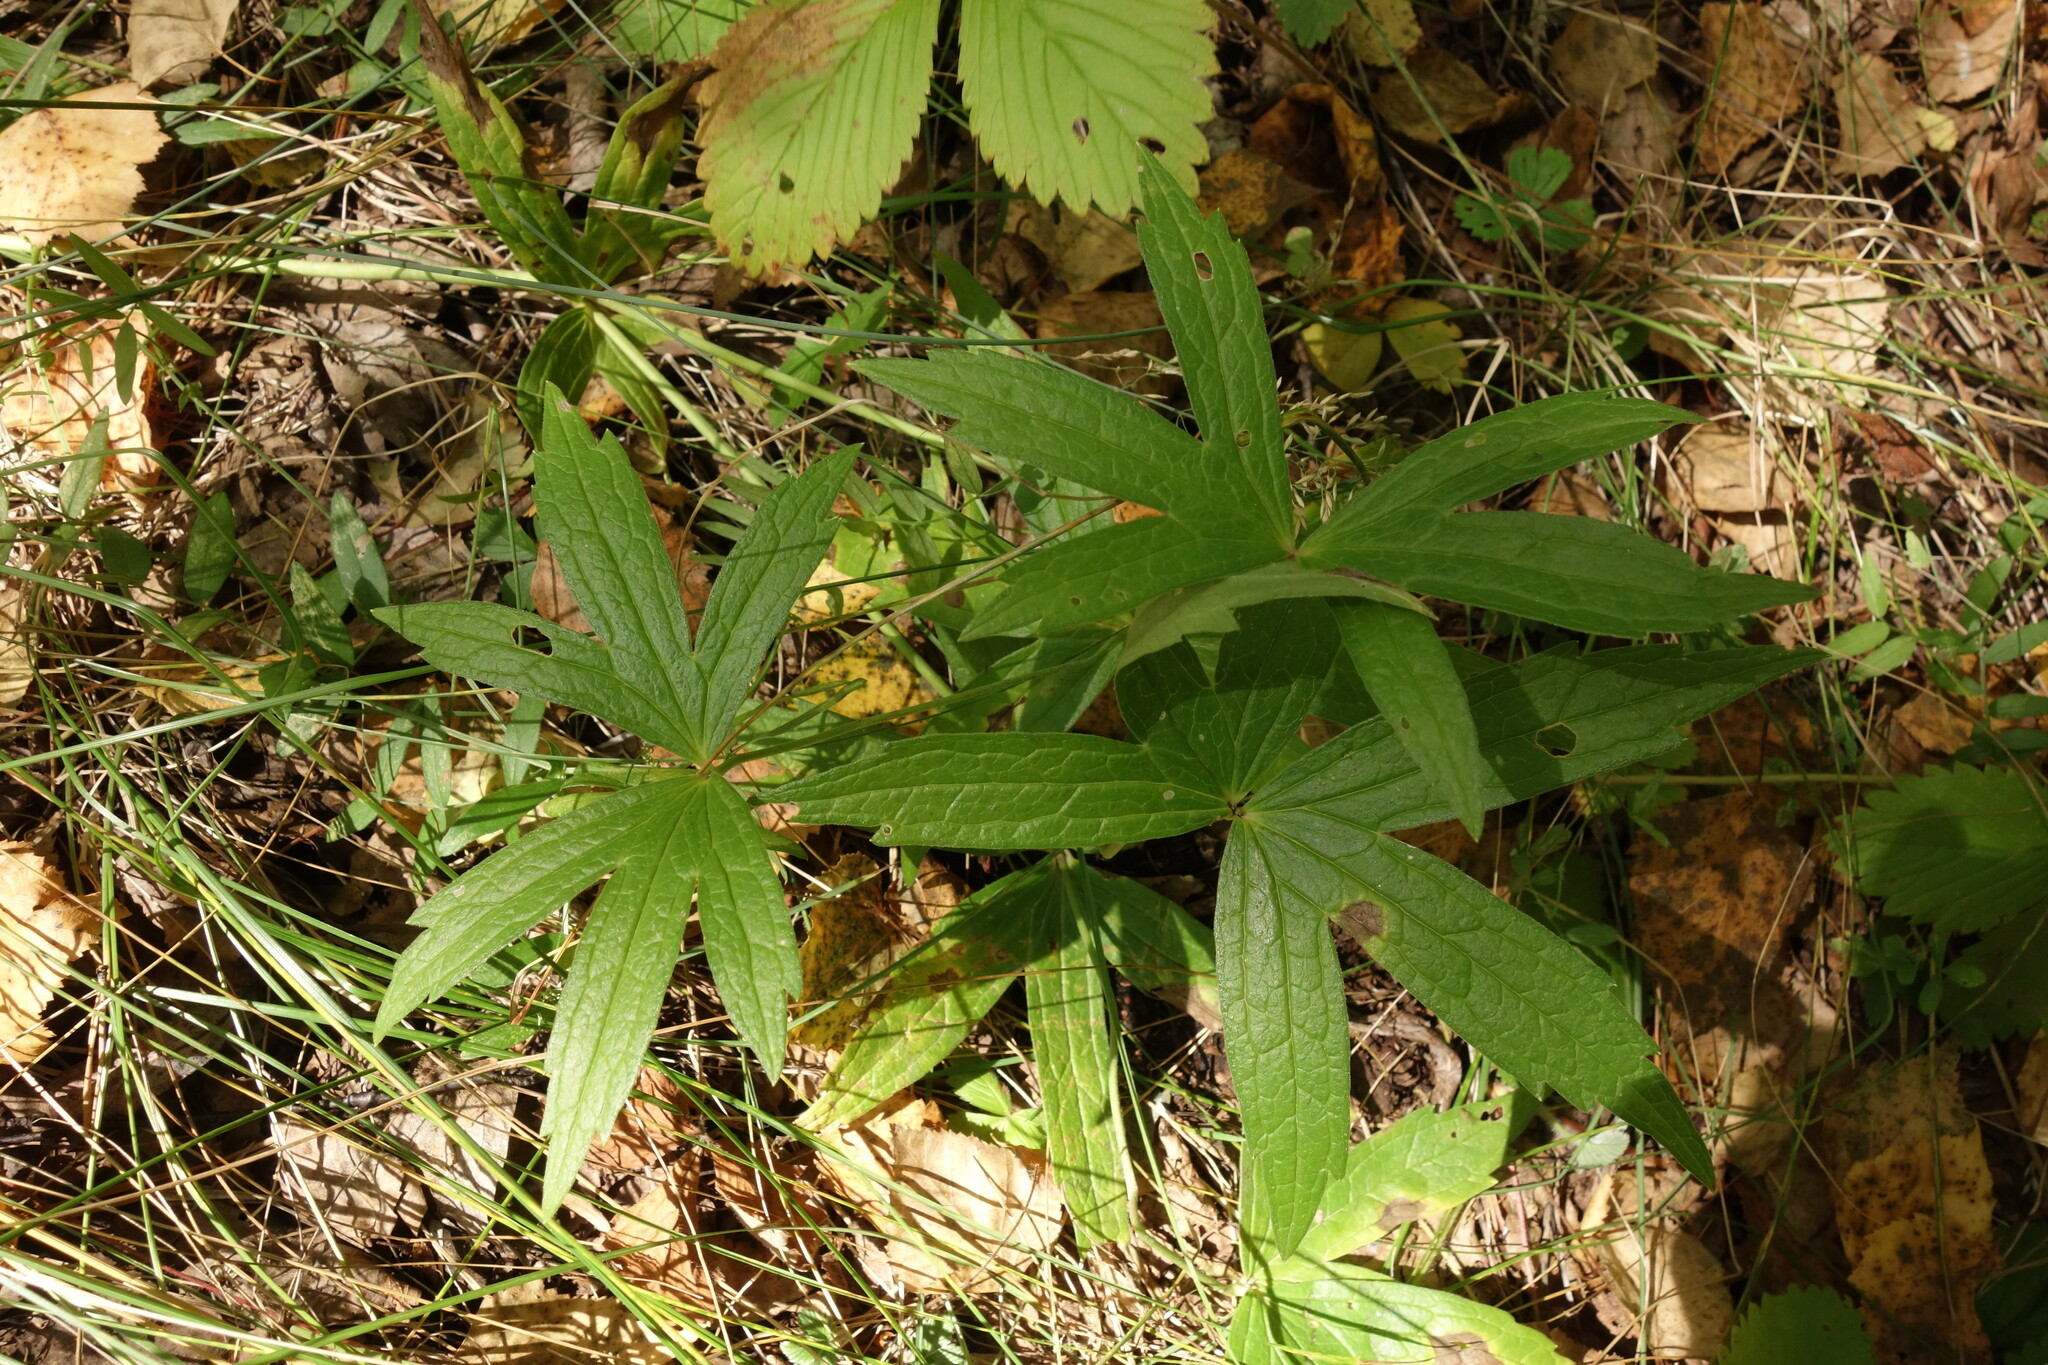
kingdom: Plantae
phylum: Tracheophyta
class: Magnoliopsida
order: Ranunculales
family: Ranunculaceae
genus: Anemonastrum
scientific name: Anemonastrum dichotomum
